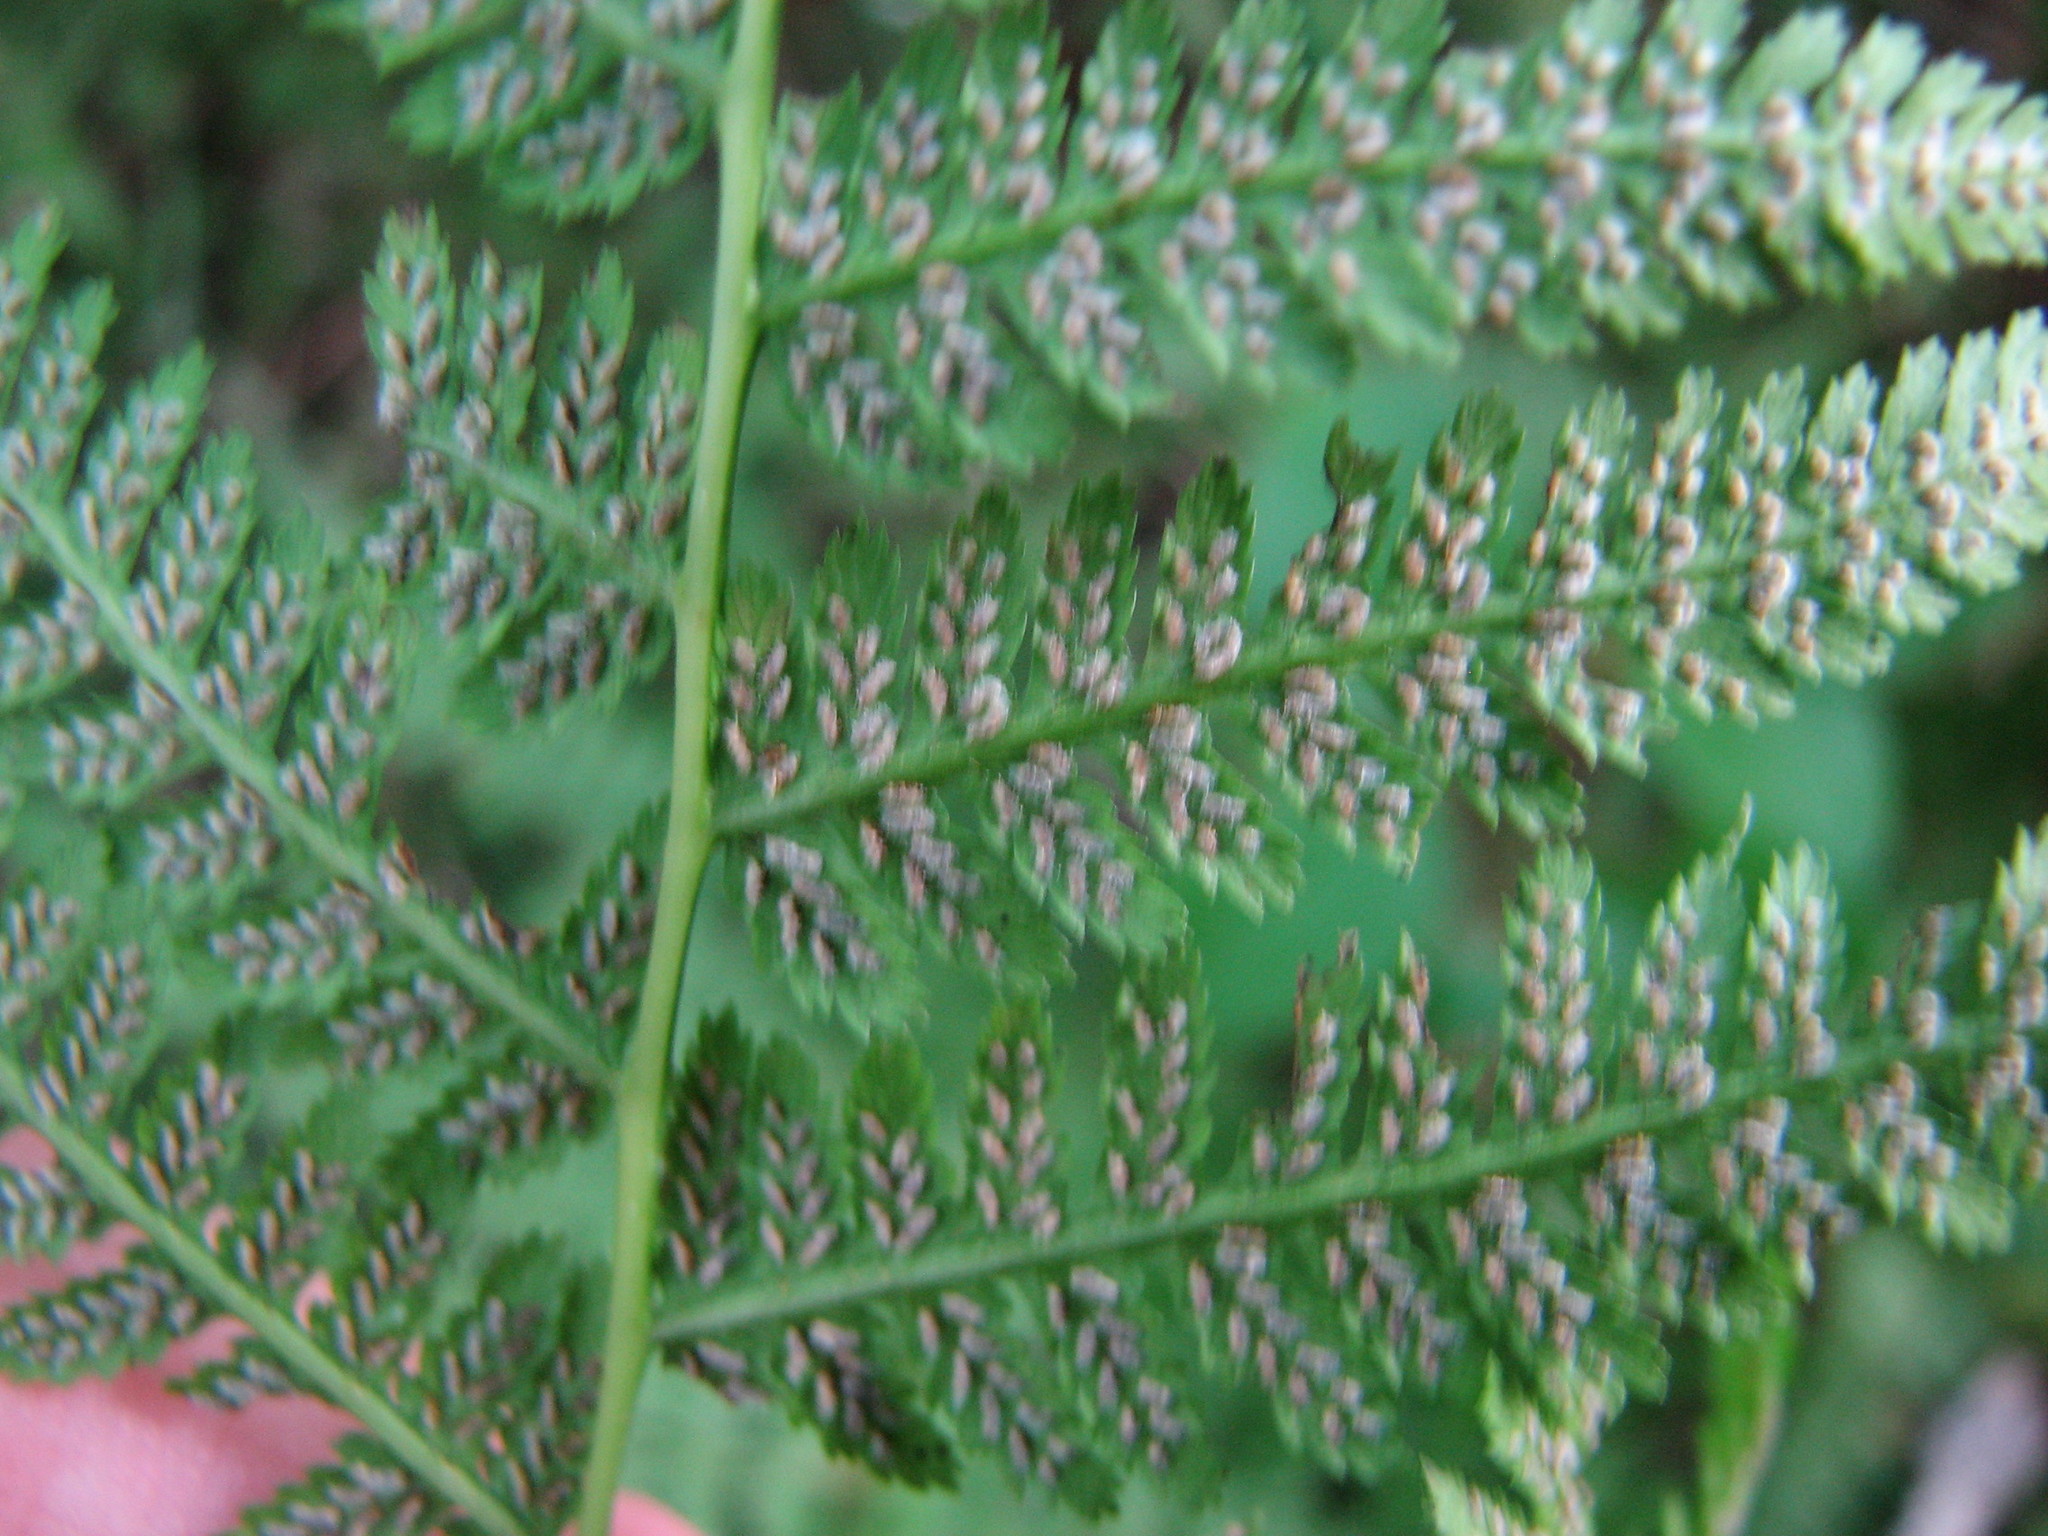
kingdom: Plantae
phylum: Tracheophyta
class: Polypodiopsida
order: Polypodiales
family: Athyriaceae
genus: Athyrium
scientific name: Athyrium angustum
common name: Northern lady fern
